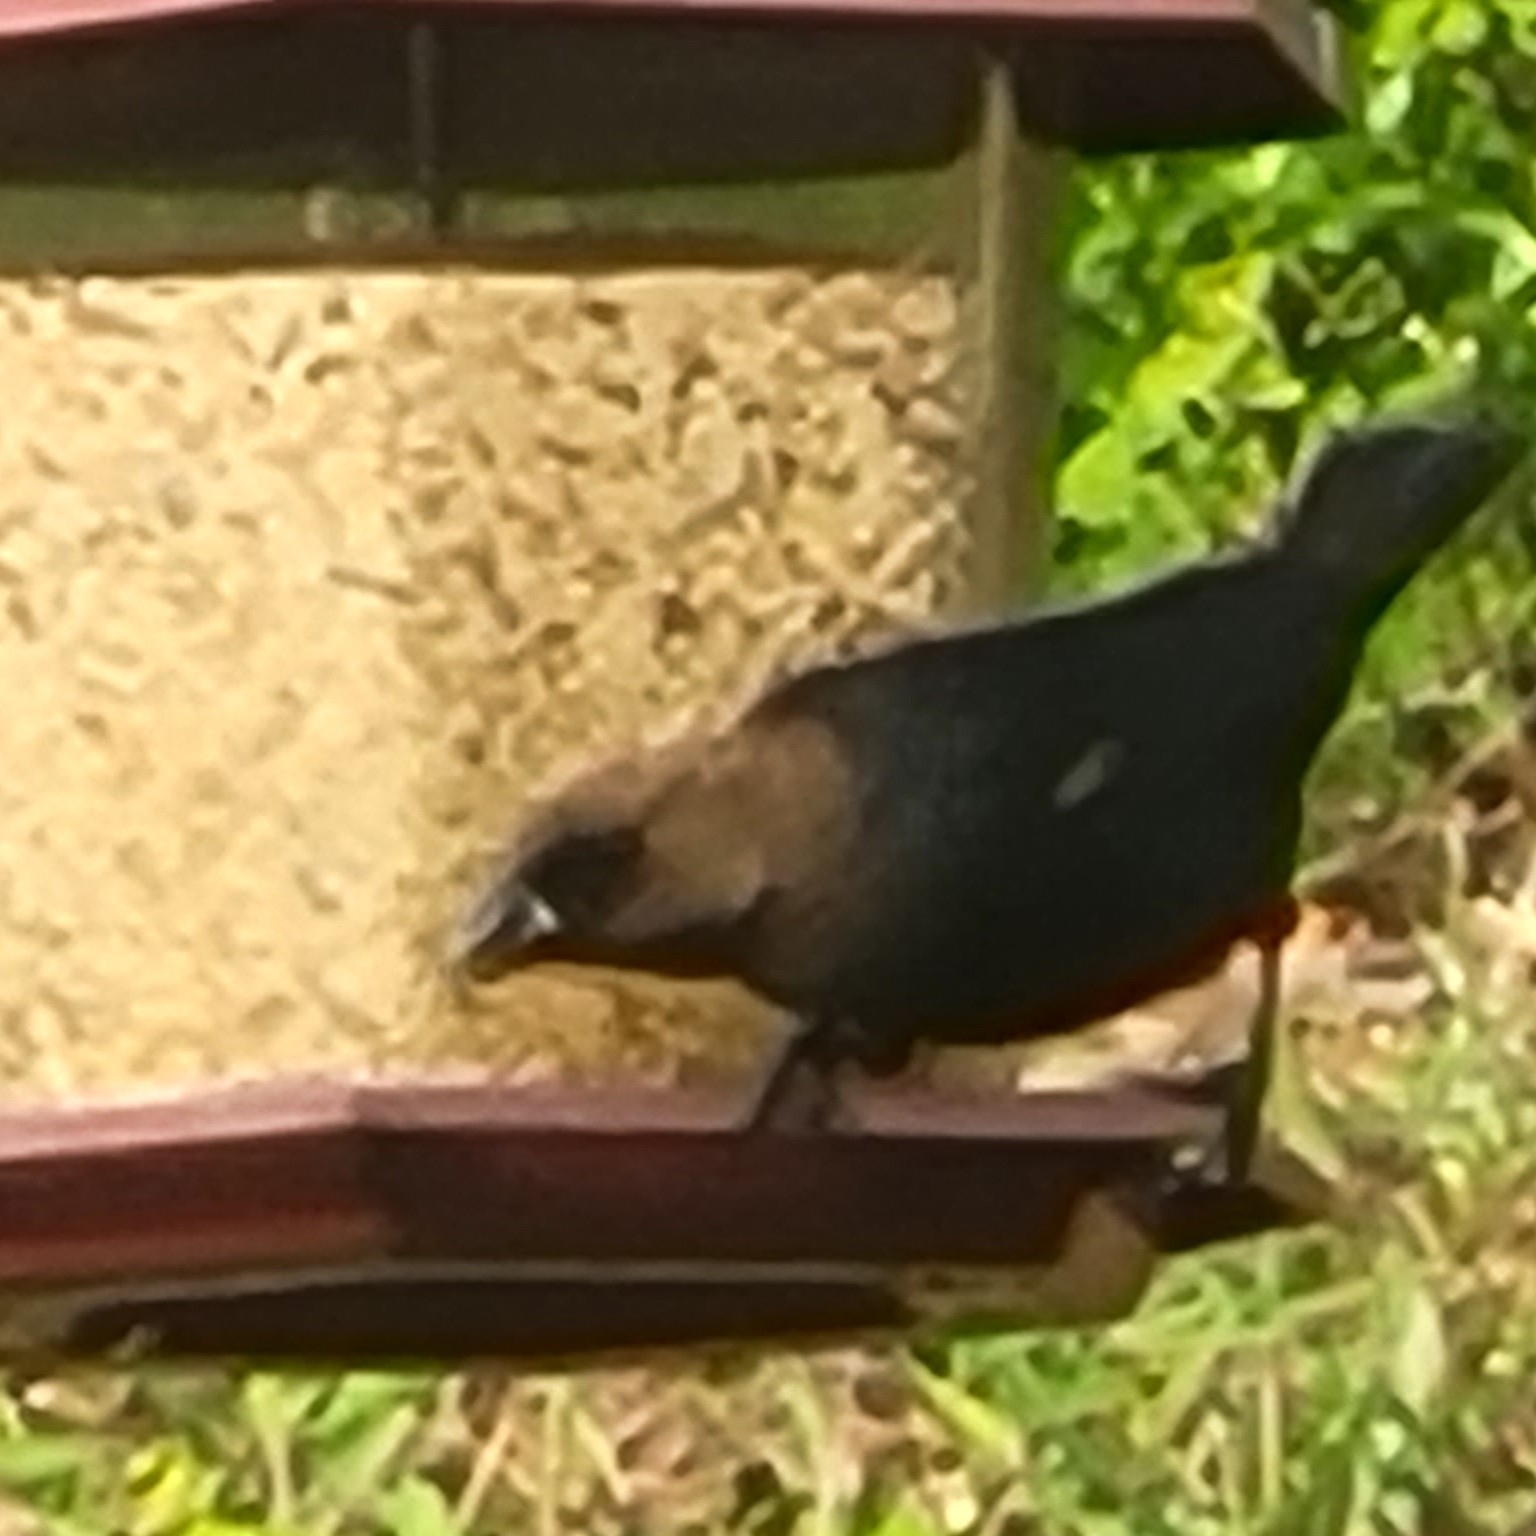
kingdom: Animalia
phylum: Chordata
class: Aves
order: Passeriformes
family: Icteridae
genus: Molothrus
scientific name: Molothrus ater
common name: Brown-headed cowbird
